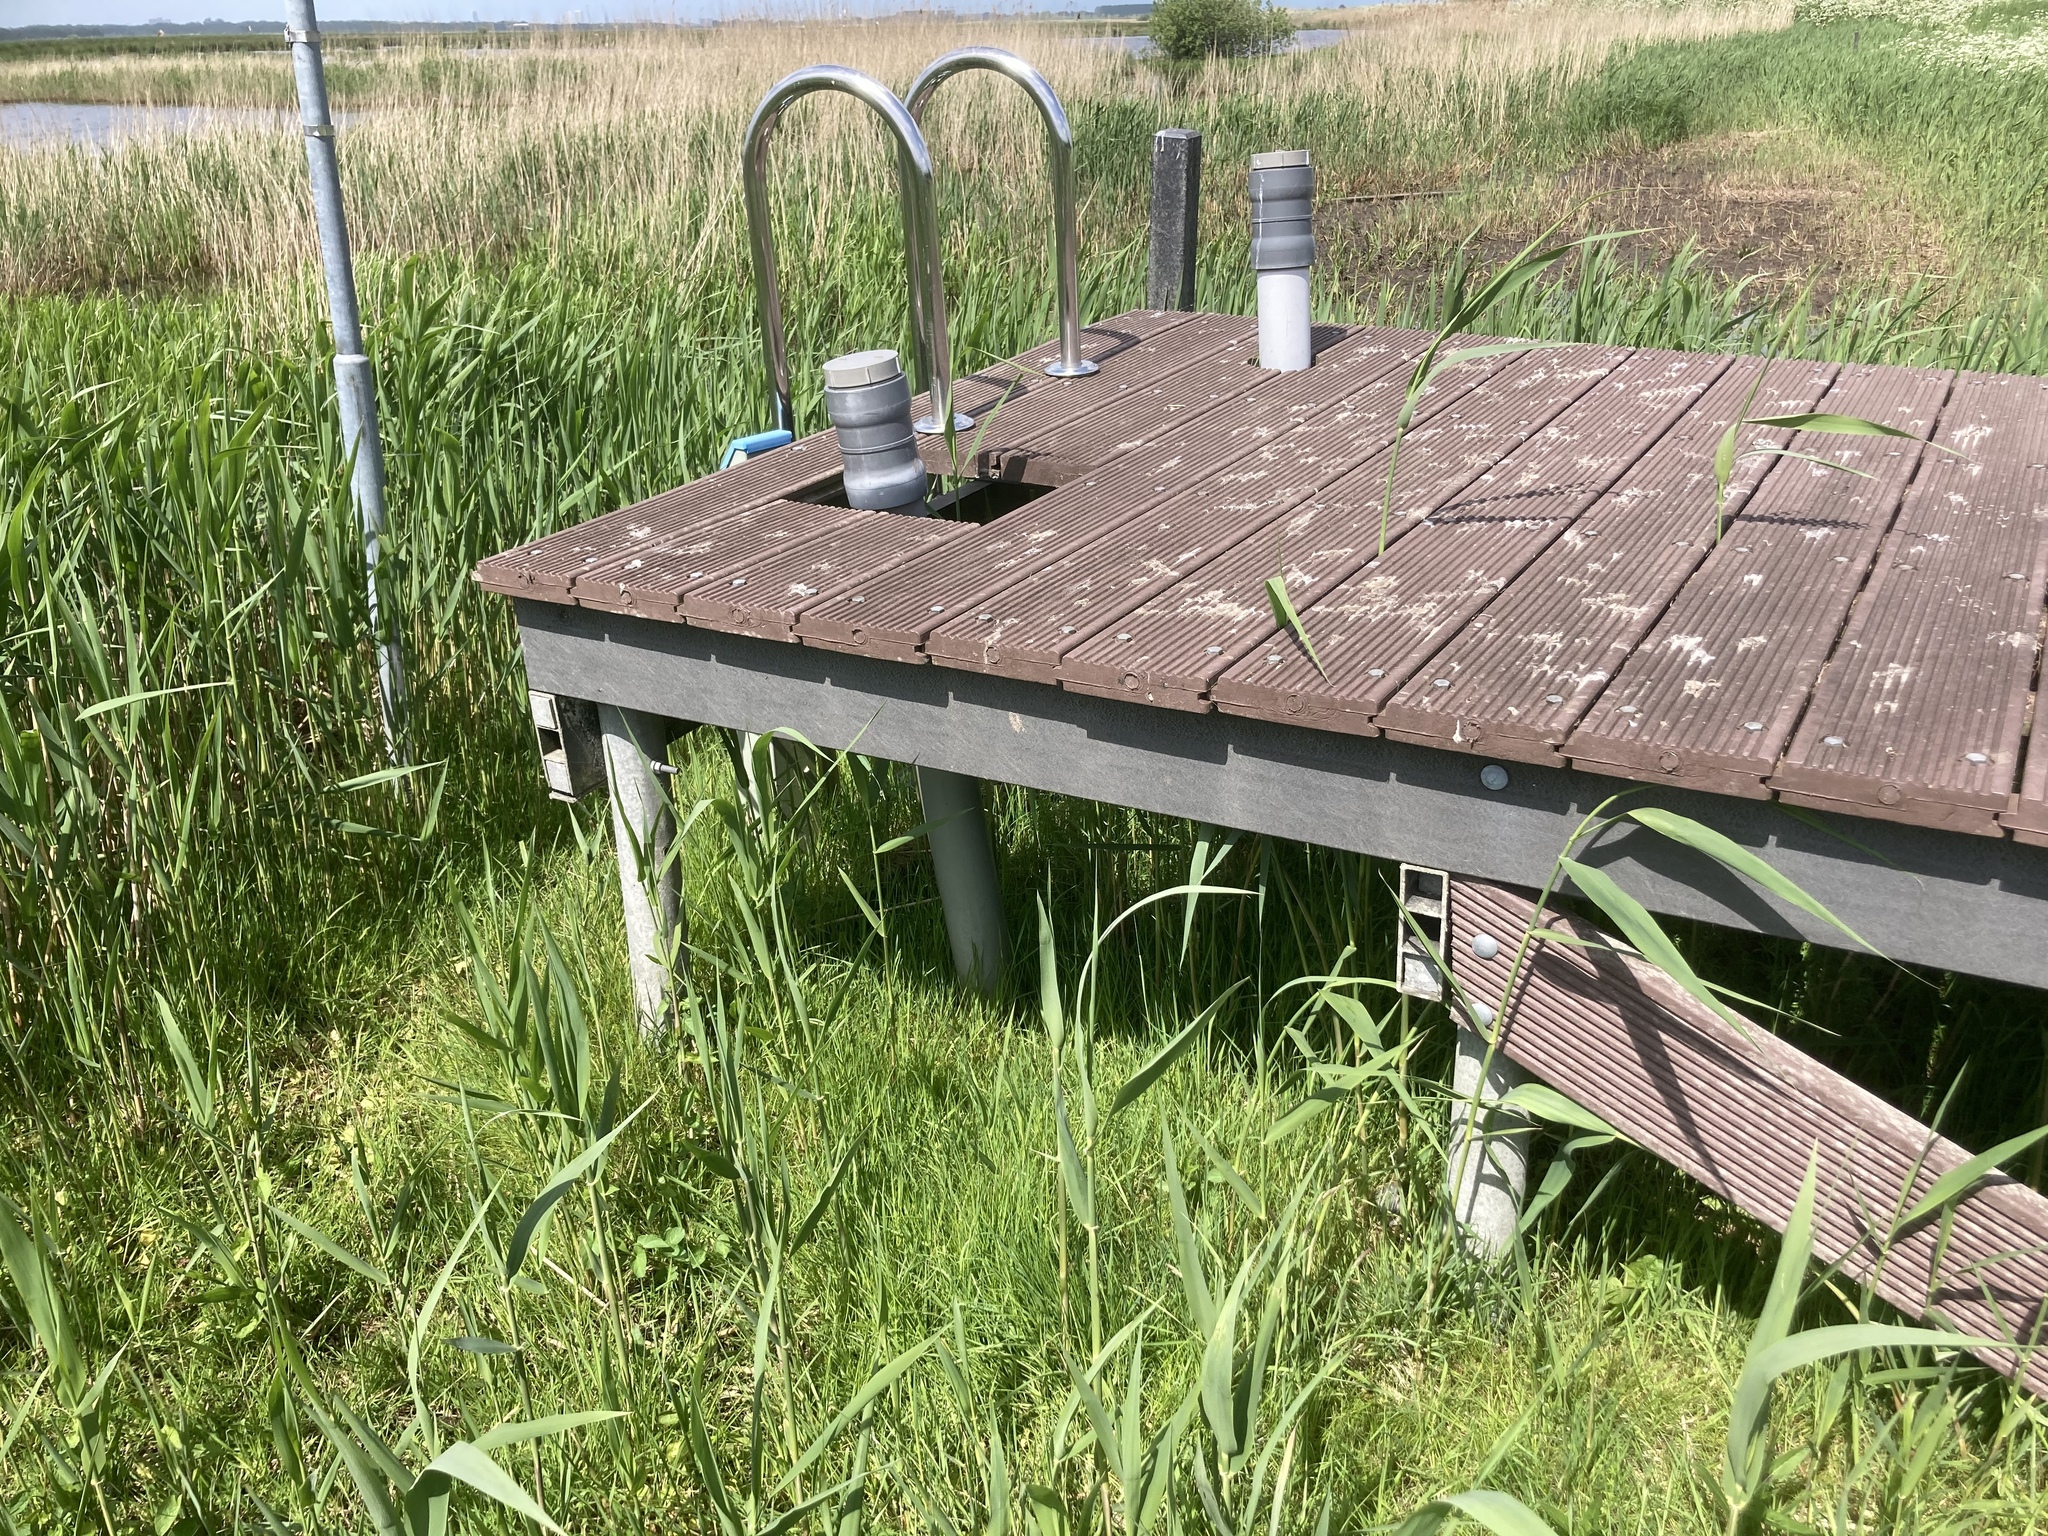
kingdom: Plantae
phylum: Tracheophyta
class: Liliopsida
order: Poales
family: Poaceae
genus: Phragmites
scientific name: Phragmites australis
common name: Common reed
